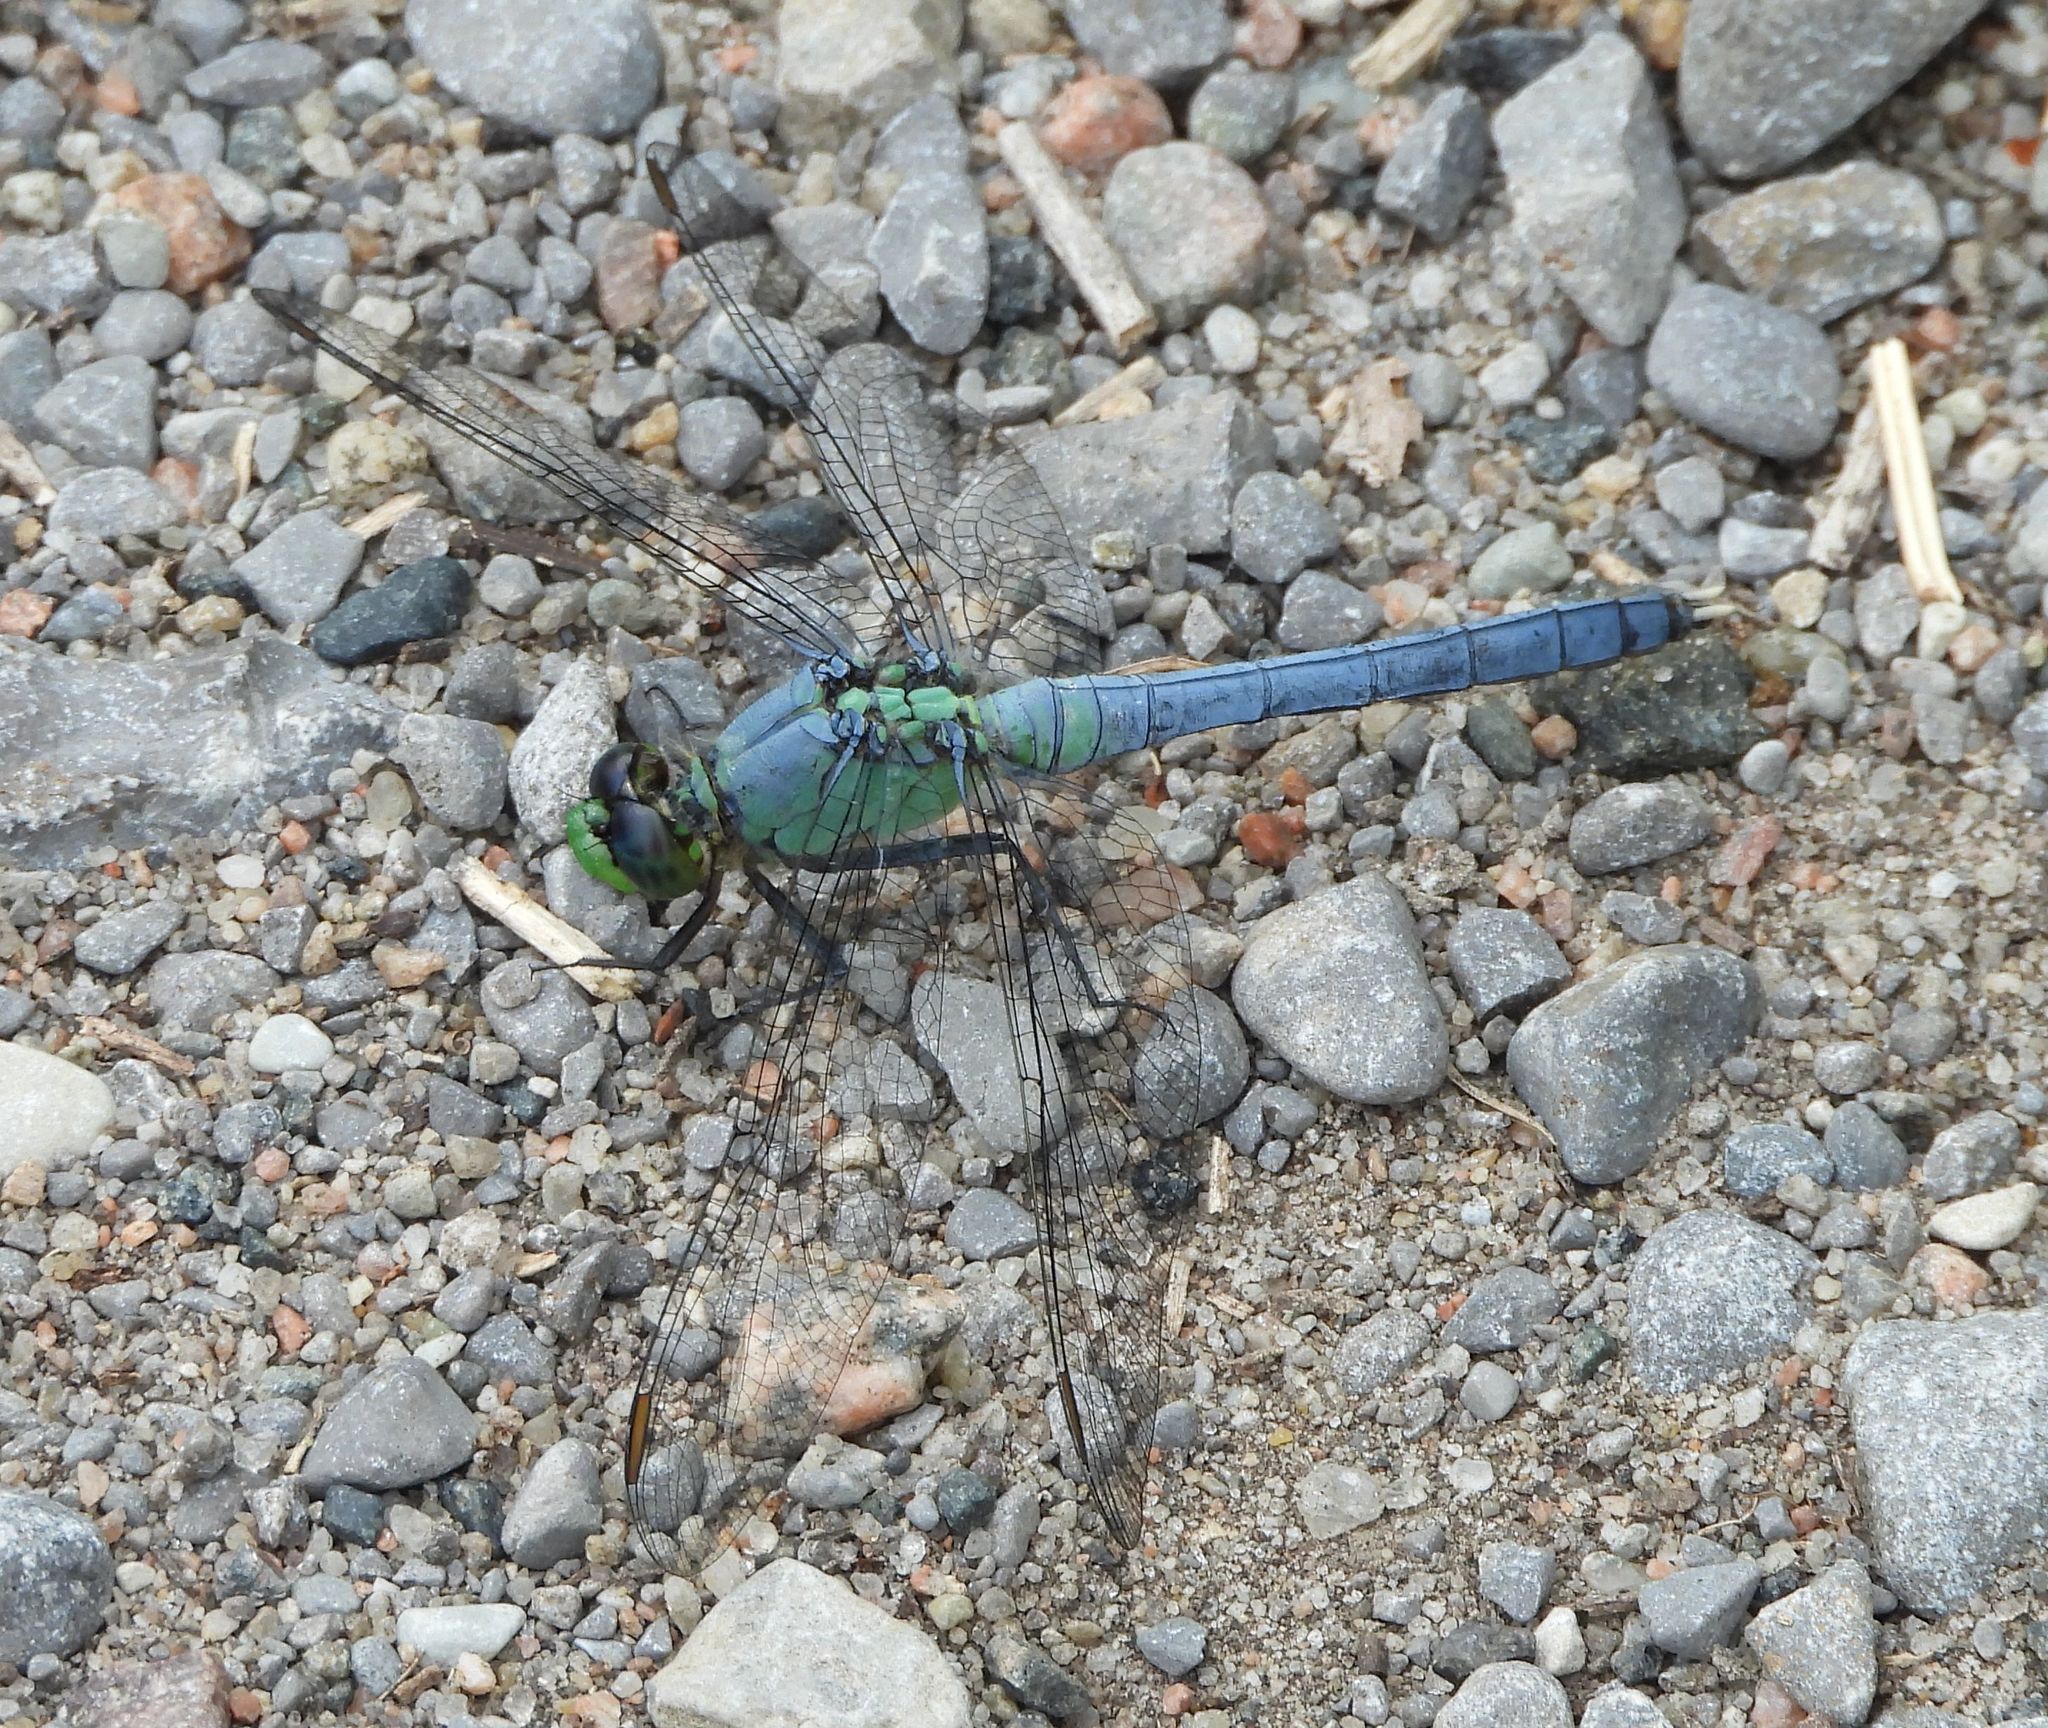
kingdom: Animalia
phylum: Arthropoda
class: Insecta
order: Odonata
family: Libellulidae
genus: Erythemis
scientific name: Erythemis simplicicollis
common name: Eastern pondhawk
